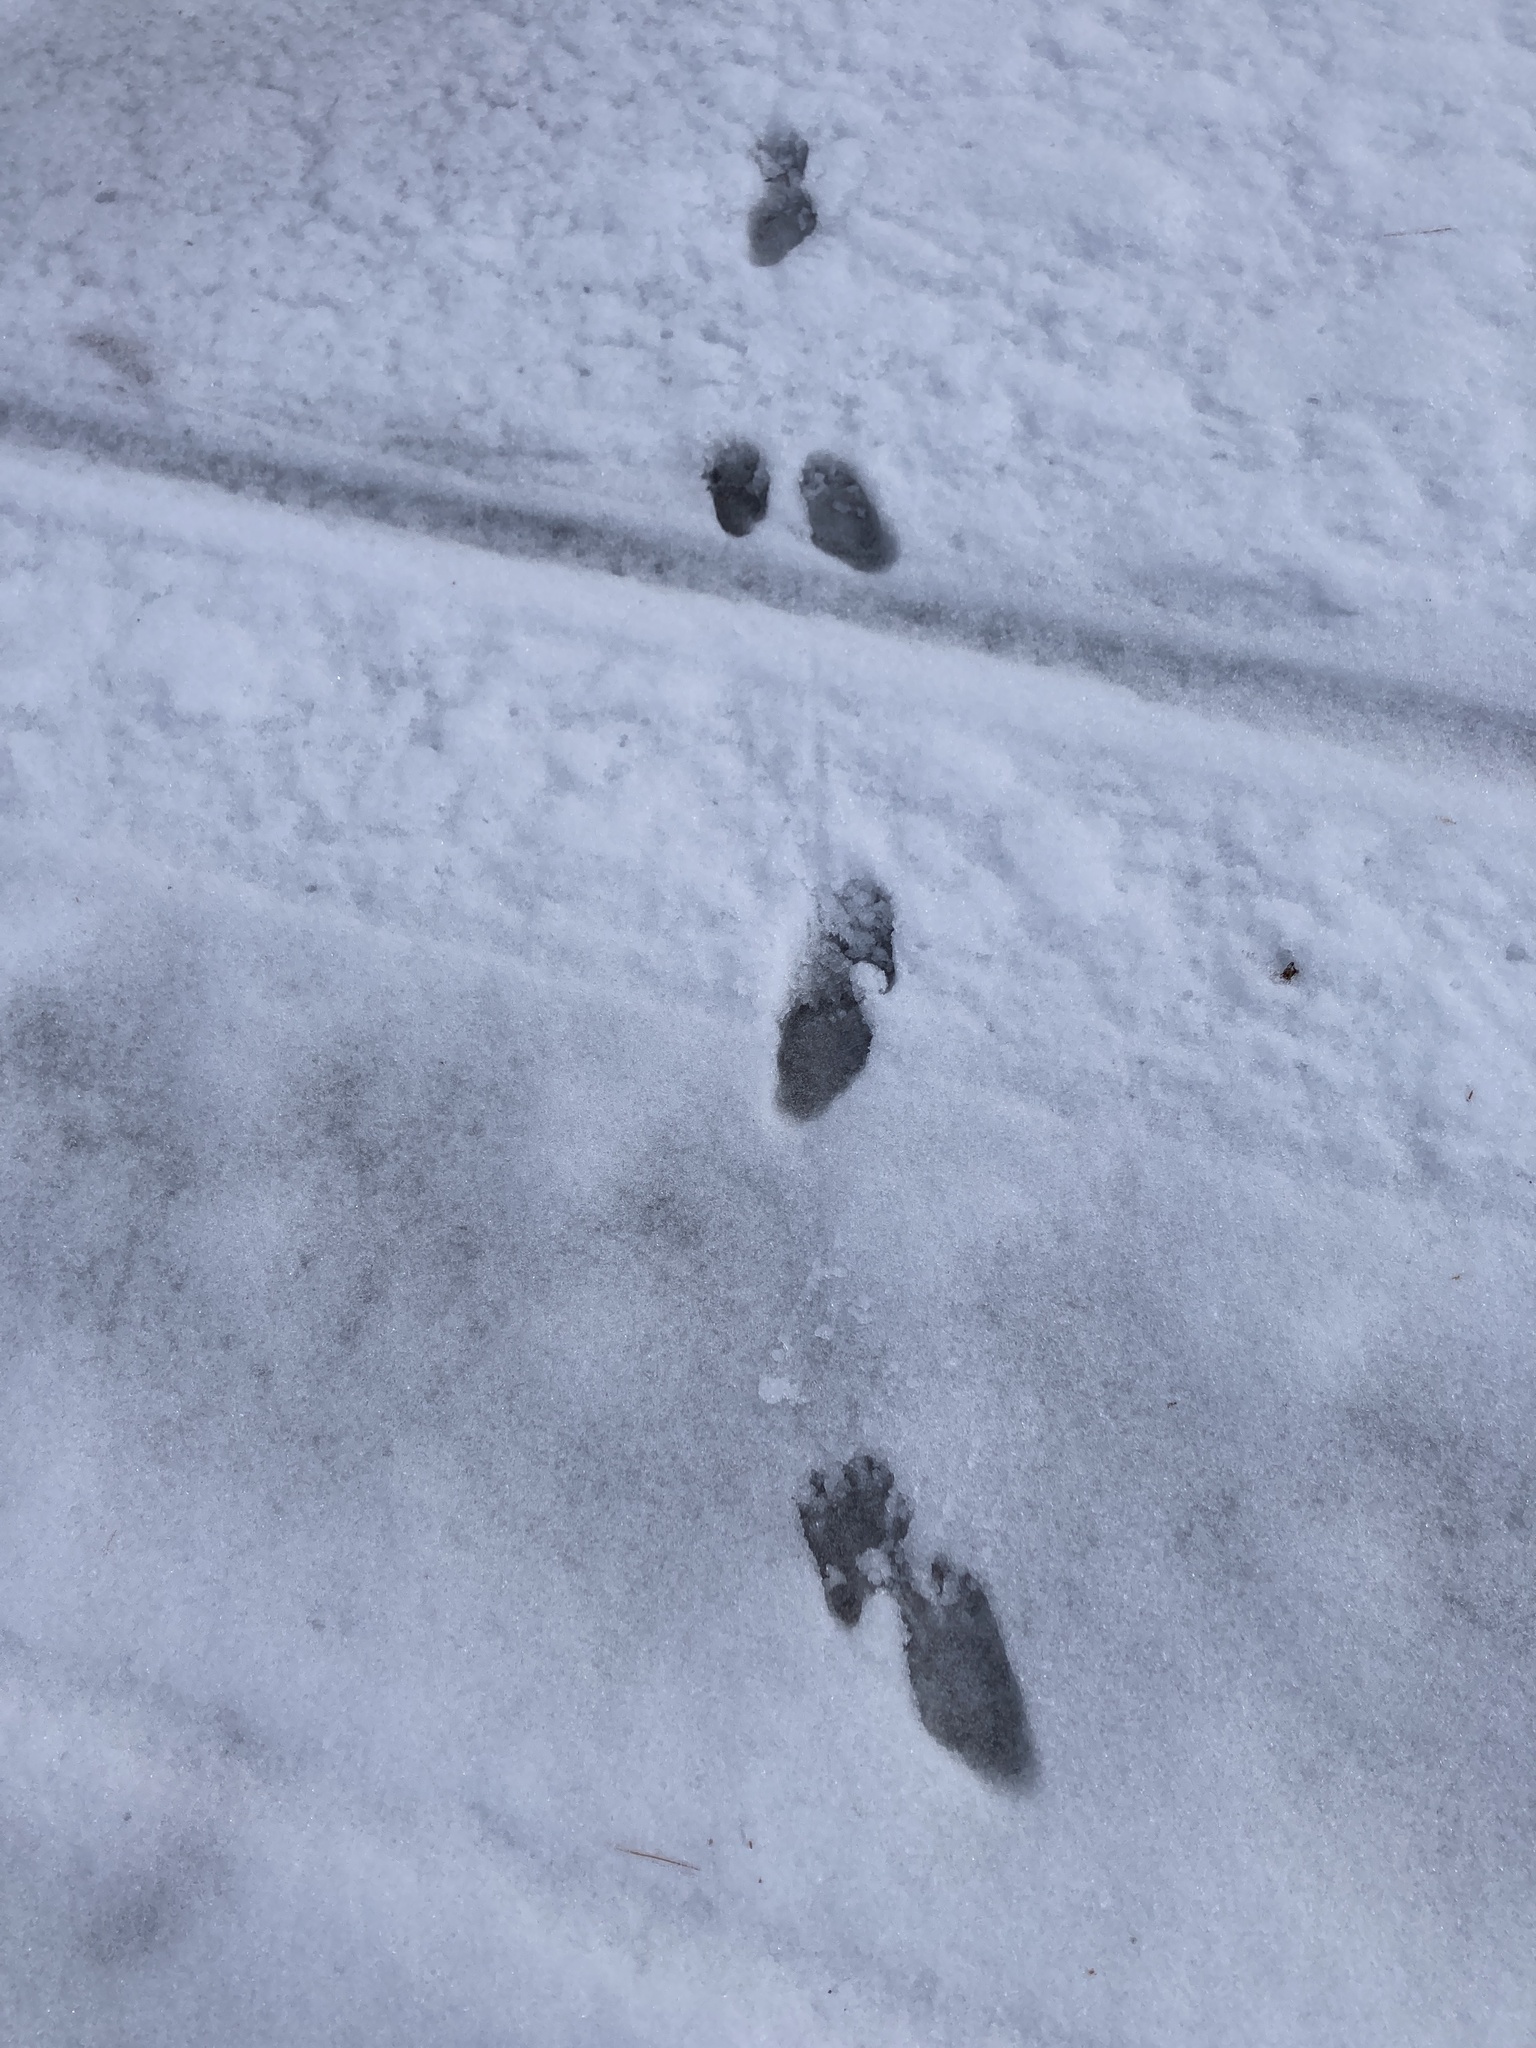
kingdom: Animalia
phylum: Chordata
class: Mammalia
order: Carnivora
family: Procyonidae
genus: Procyon
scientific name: Procyon lotor
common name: Raccoon
